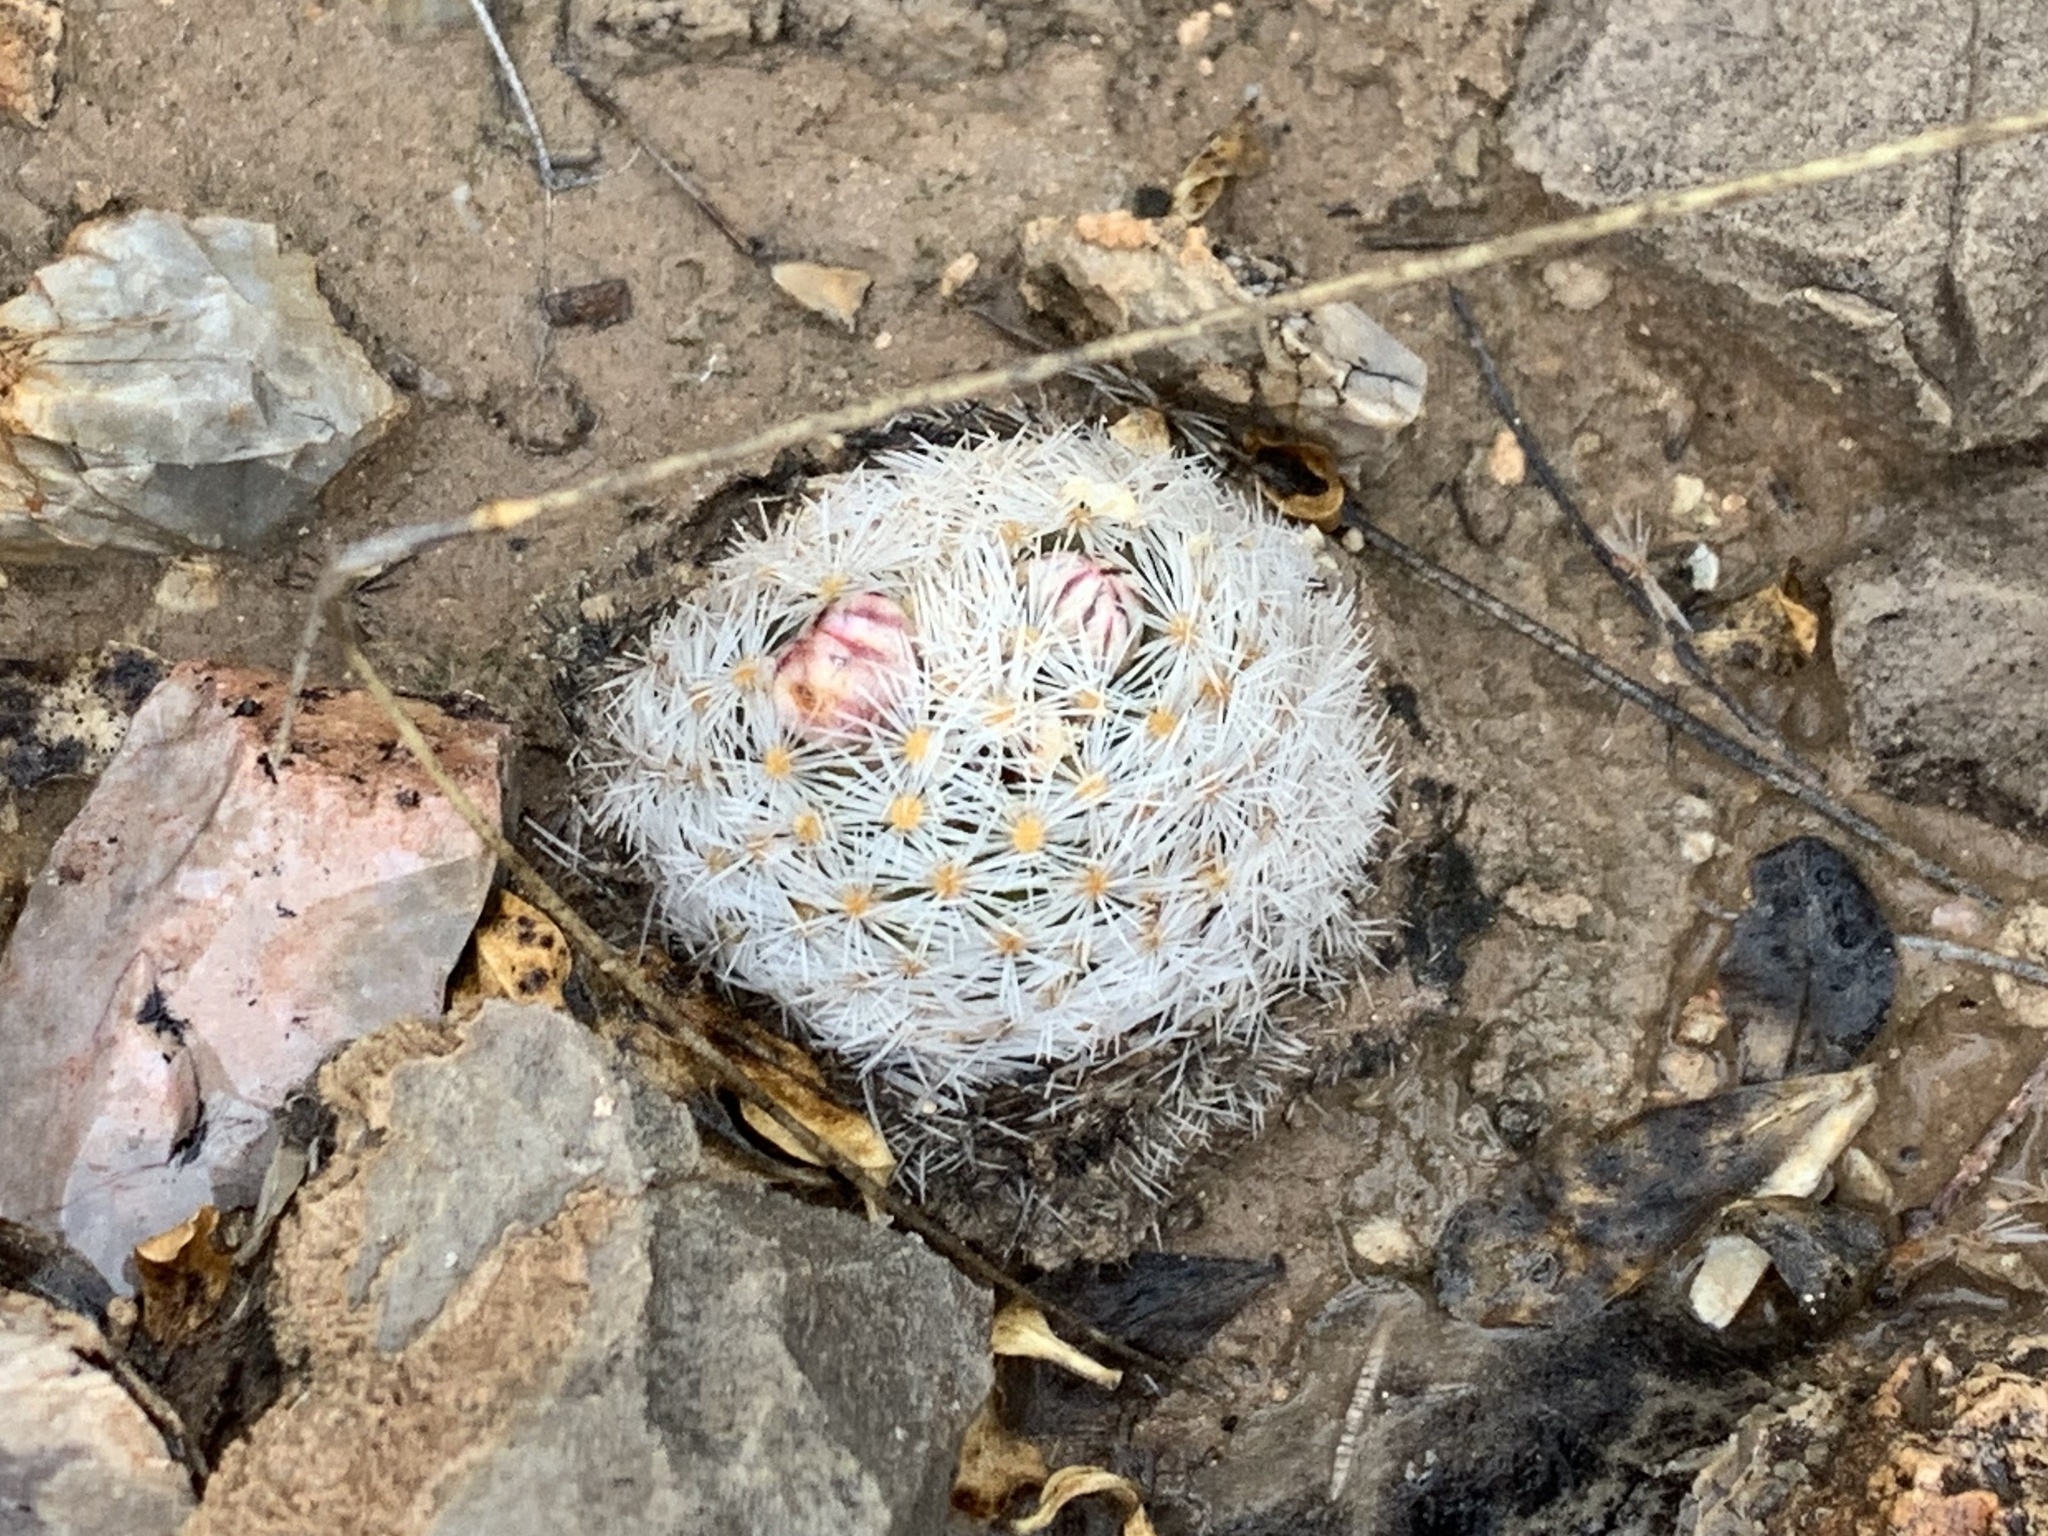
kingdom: Plantae
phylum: Tracheophyta
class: Magnoliopsida
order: Caryophyllales
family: Cactaceae
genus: Mammillaria
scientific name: Mammillaria lasiacantha
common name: Lace-spine nipple cactus
